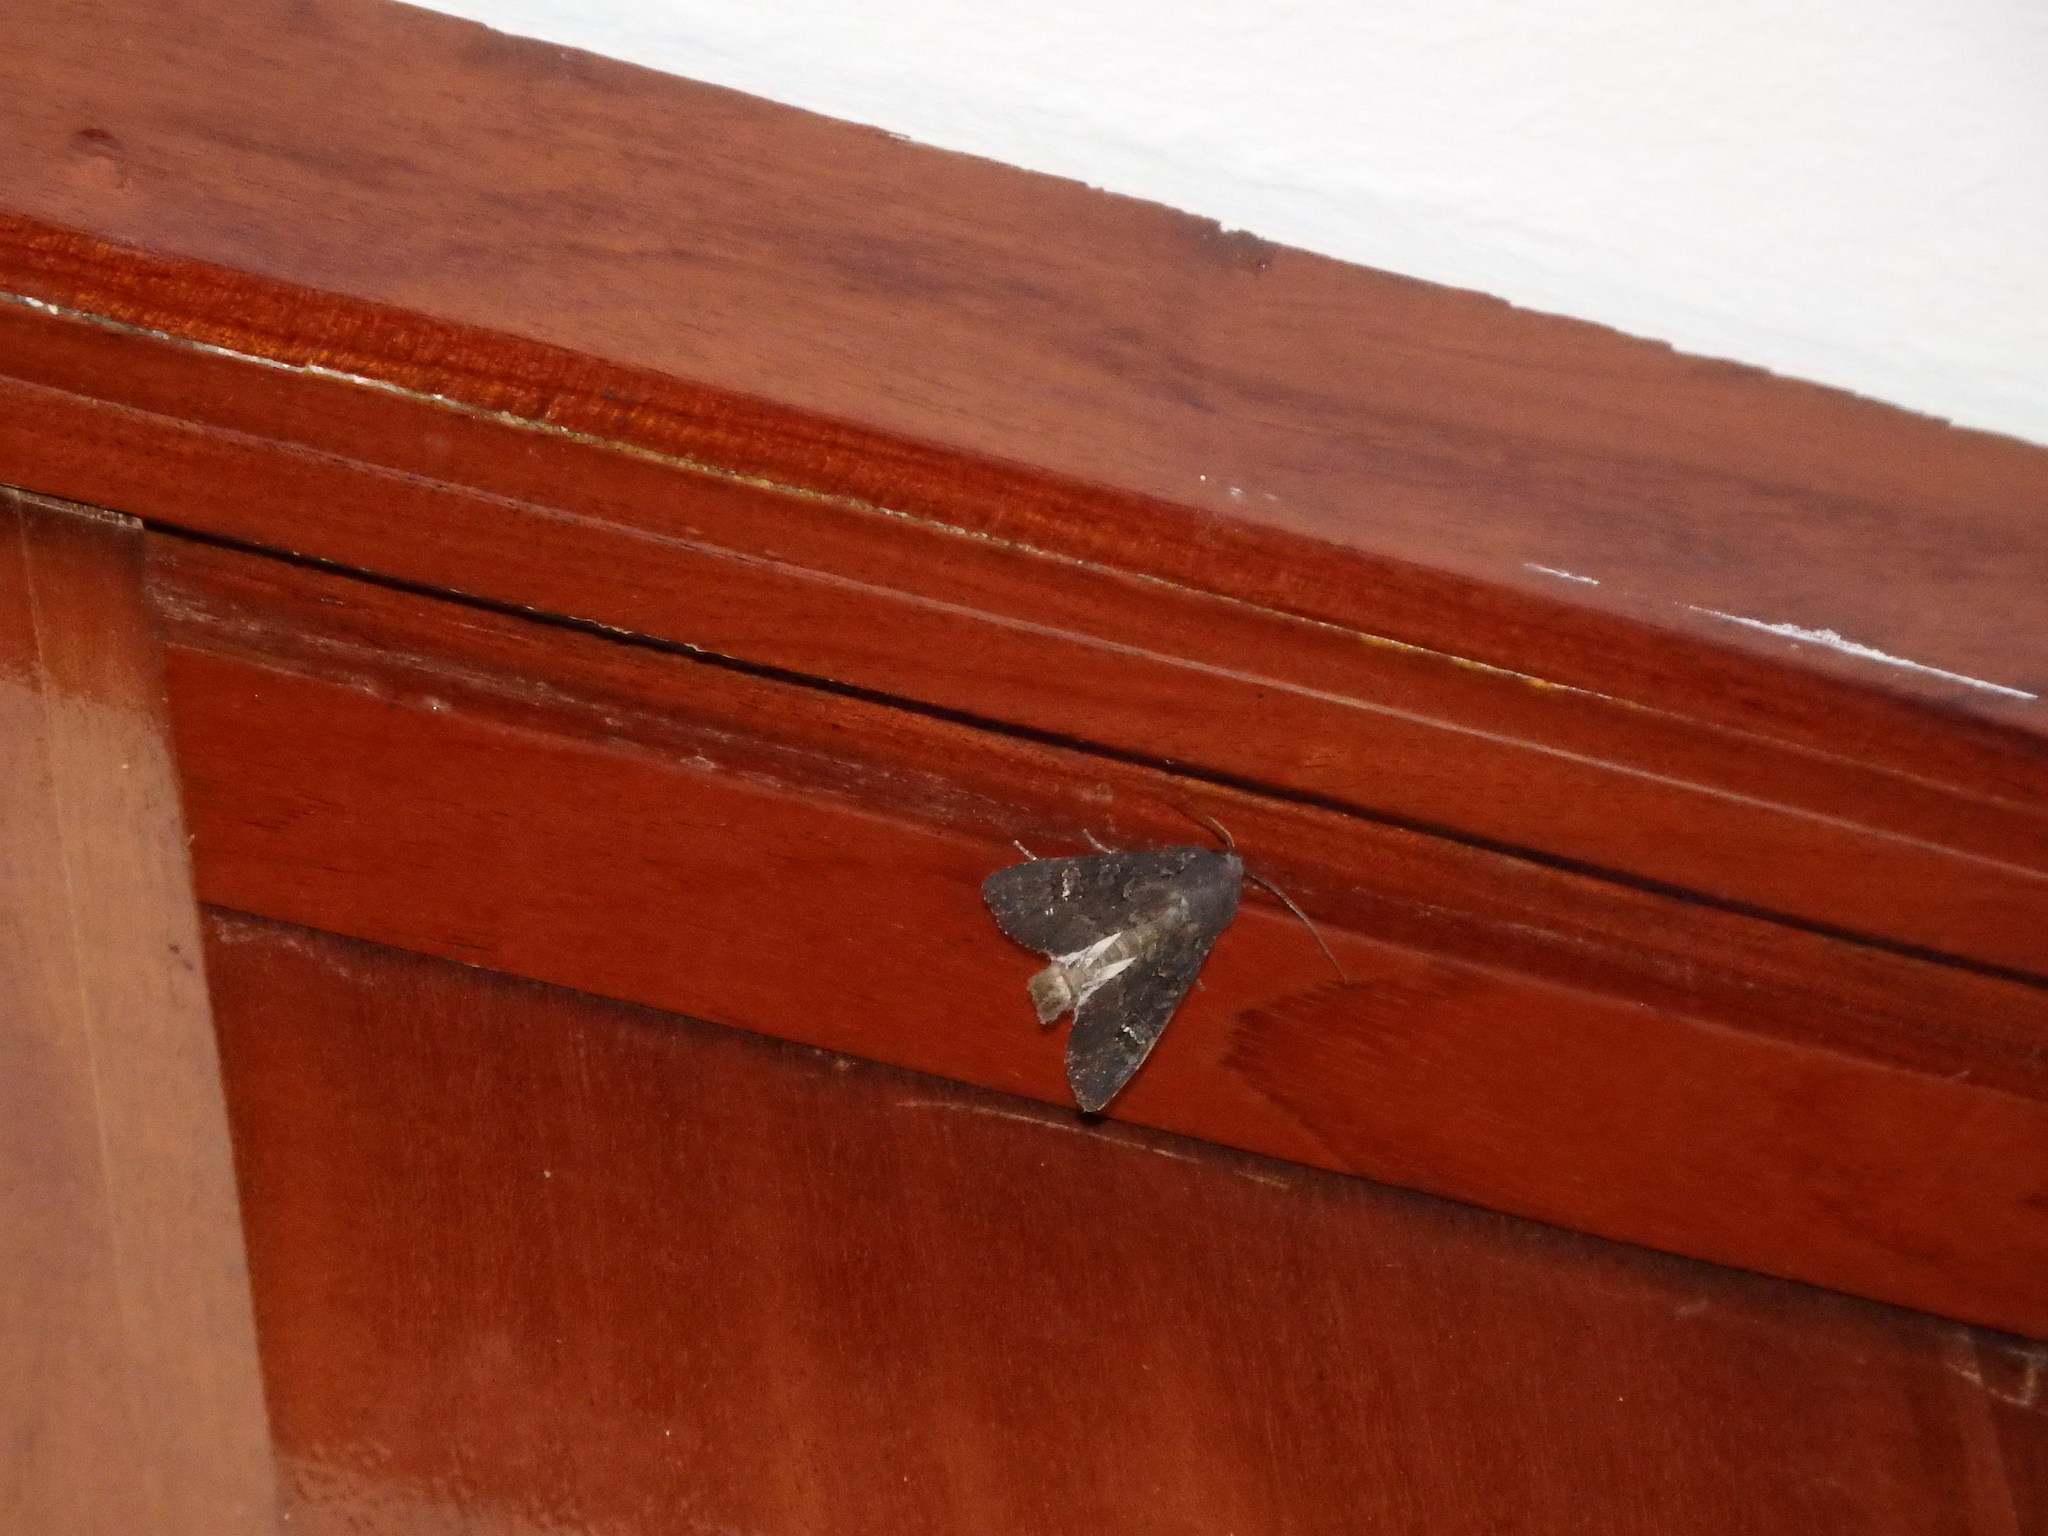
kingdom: Animalia
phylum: Arthropoda
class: Insecta
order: Lepidoptera
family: Noctuidae
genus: Aporophyla
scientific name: Aporophyla nigra
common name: Black rustic
